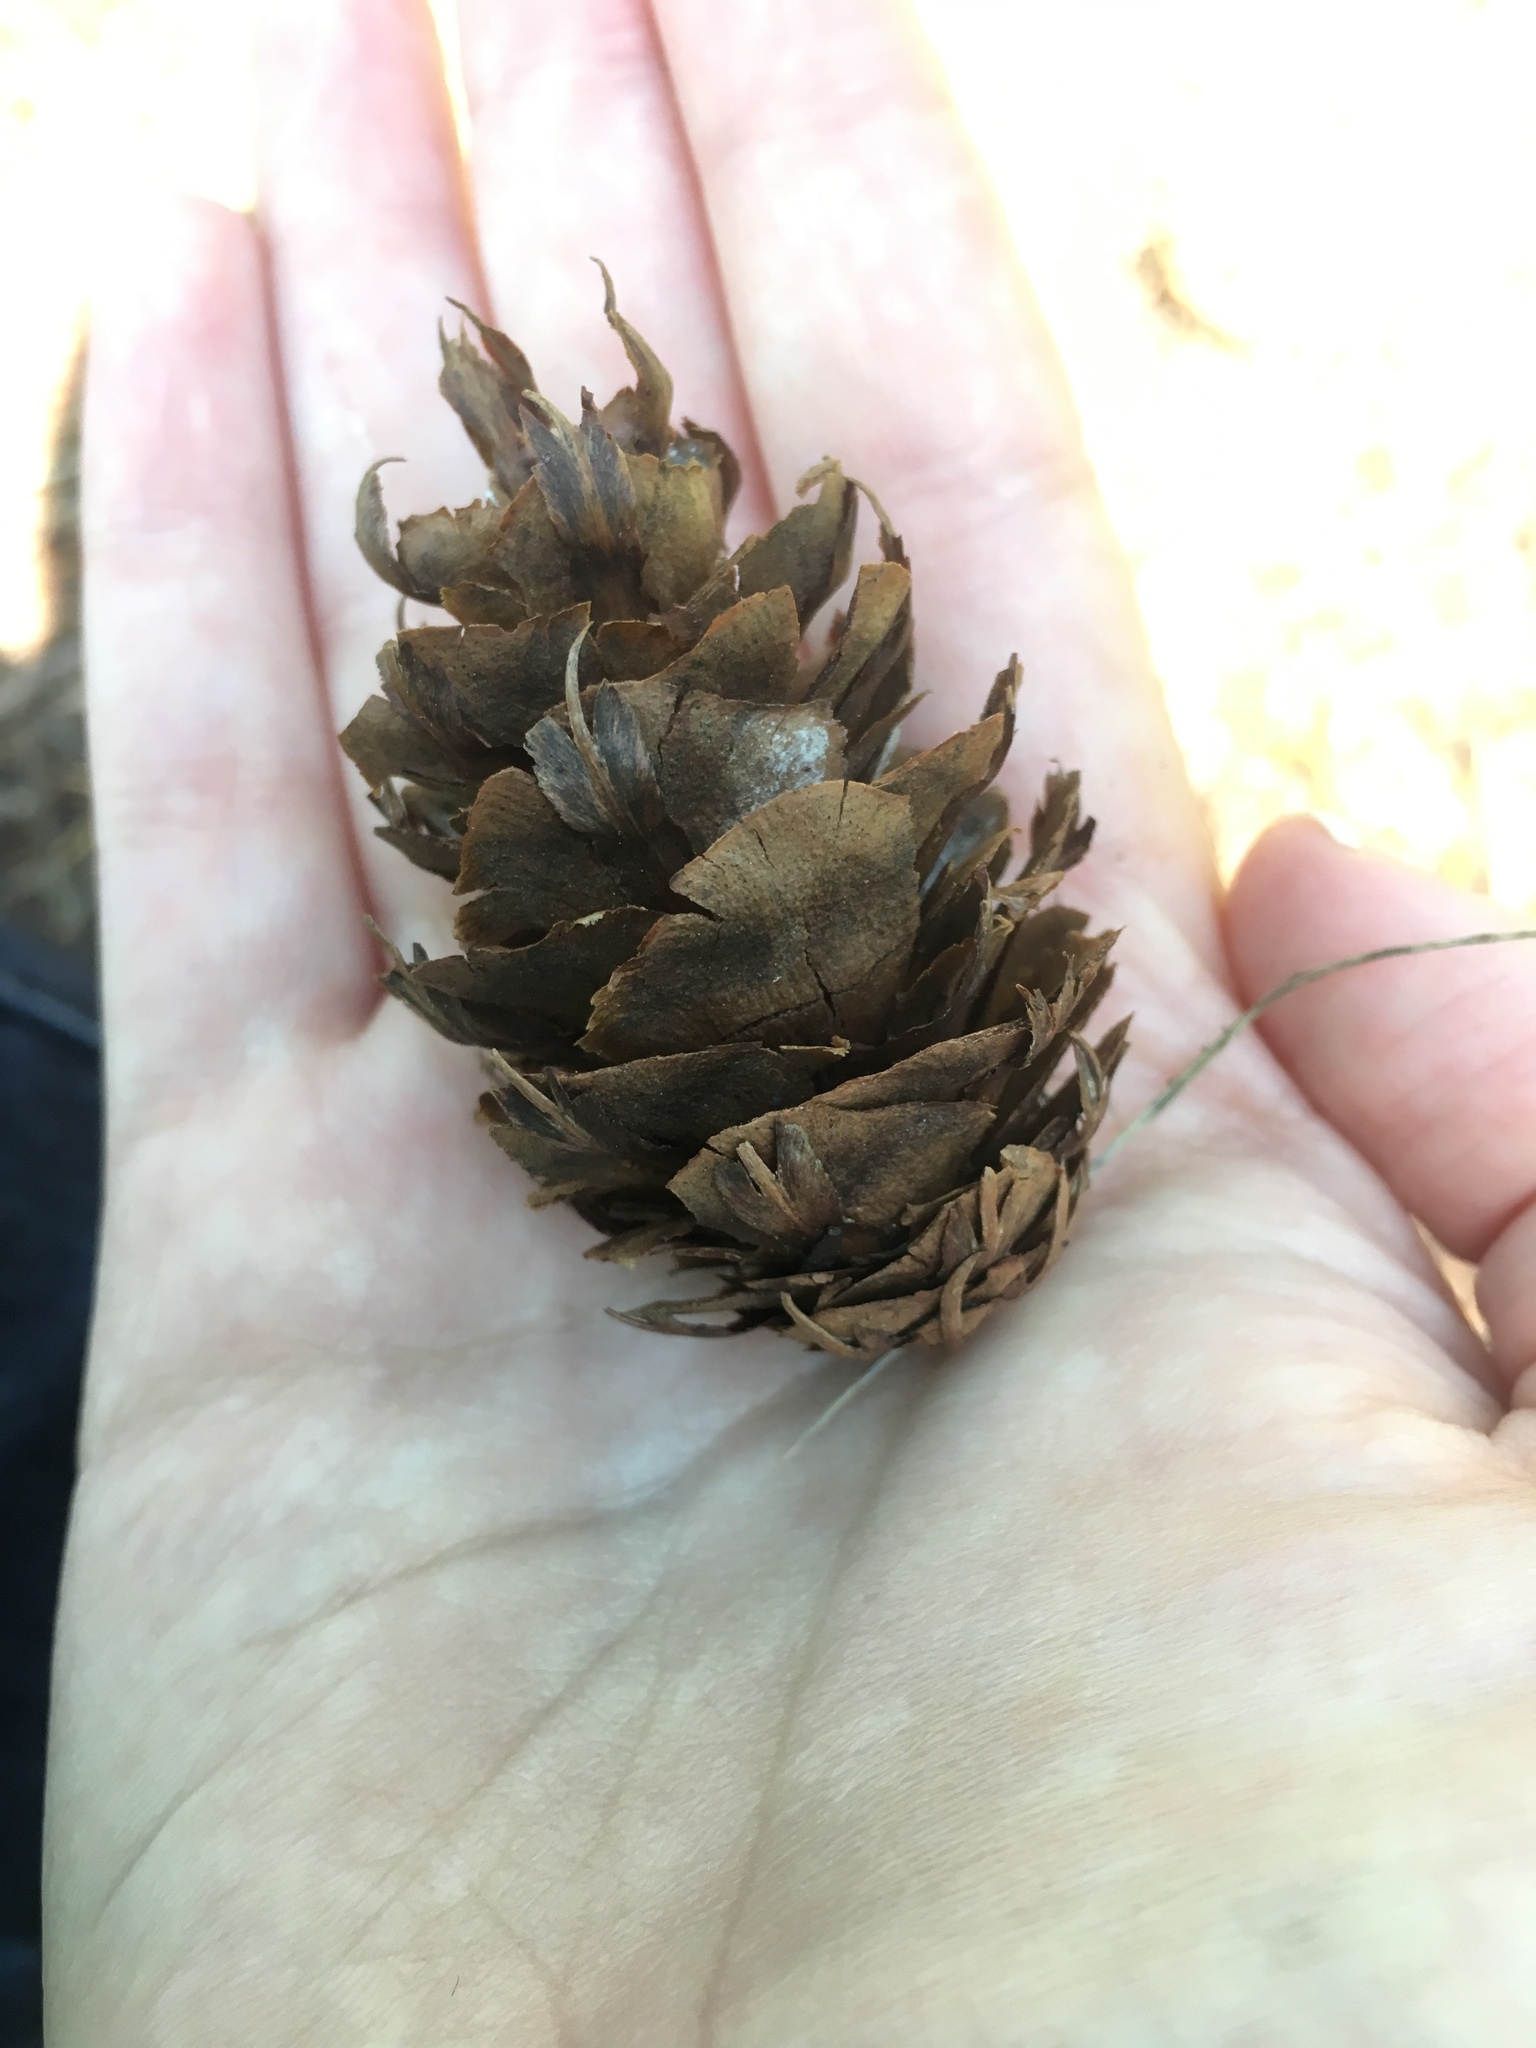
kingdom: Plantae
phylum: Tracheophyta
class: Pinopsida
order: Pinales
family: Pinaceae
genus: Pseudotsuga
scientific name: Pseudotsuga menziesii
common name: Douglas fir
